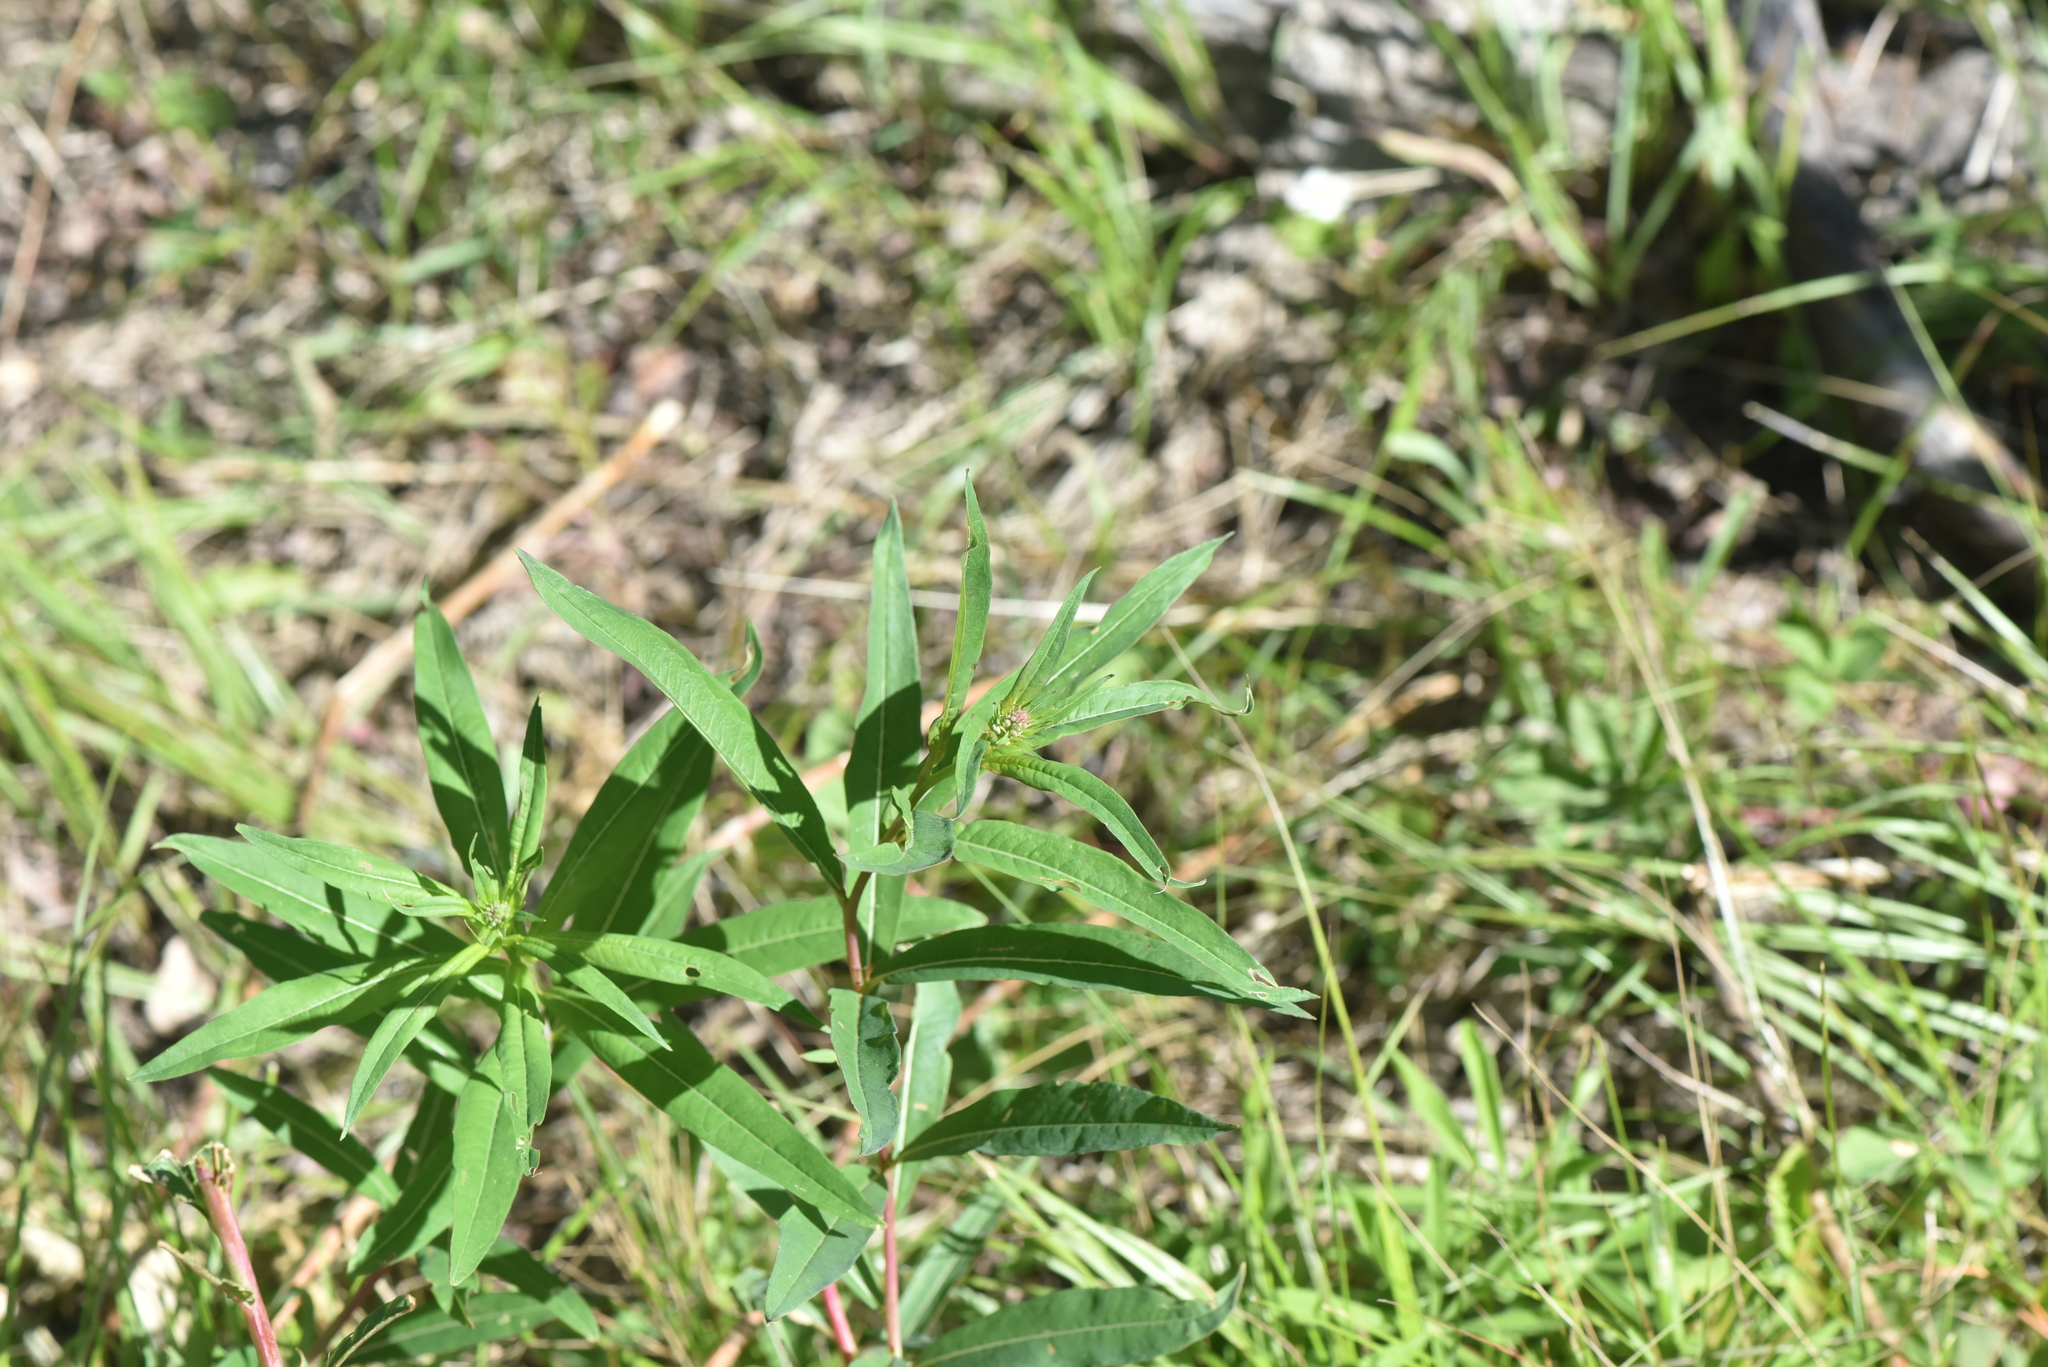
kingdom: Plantae
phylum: Tracheophyta
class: Magnoliopsida
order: Myrtales
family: Onagraceae
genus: Chamaenerion
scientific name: Chamaenerion angustifolium
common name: Fireweed
